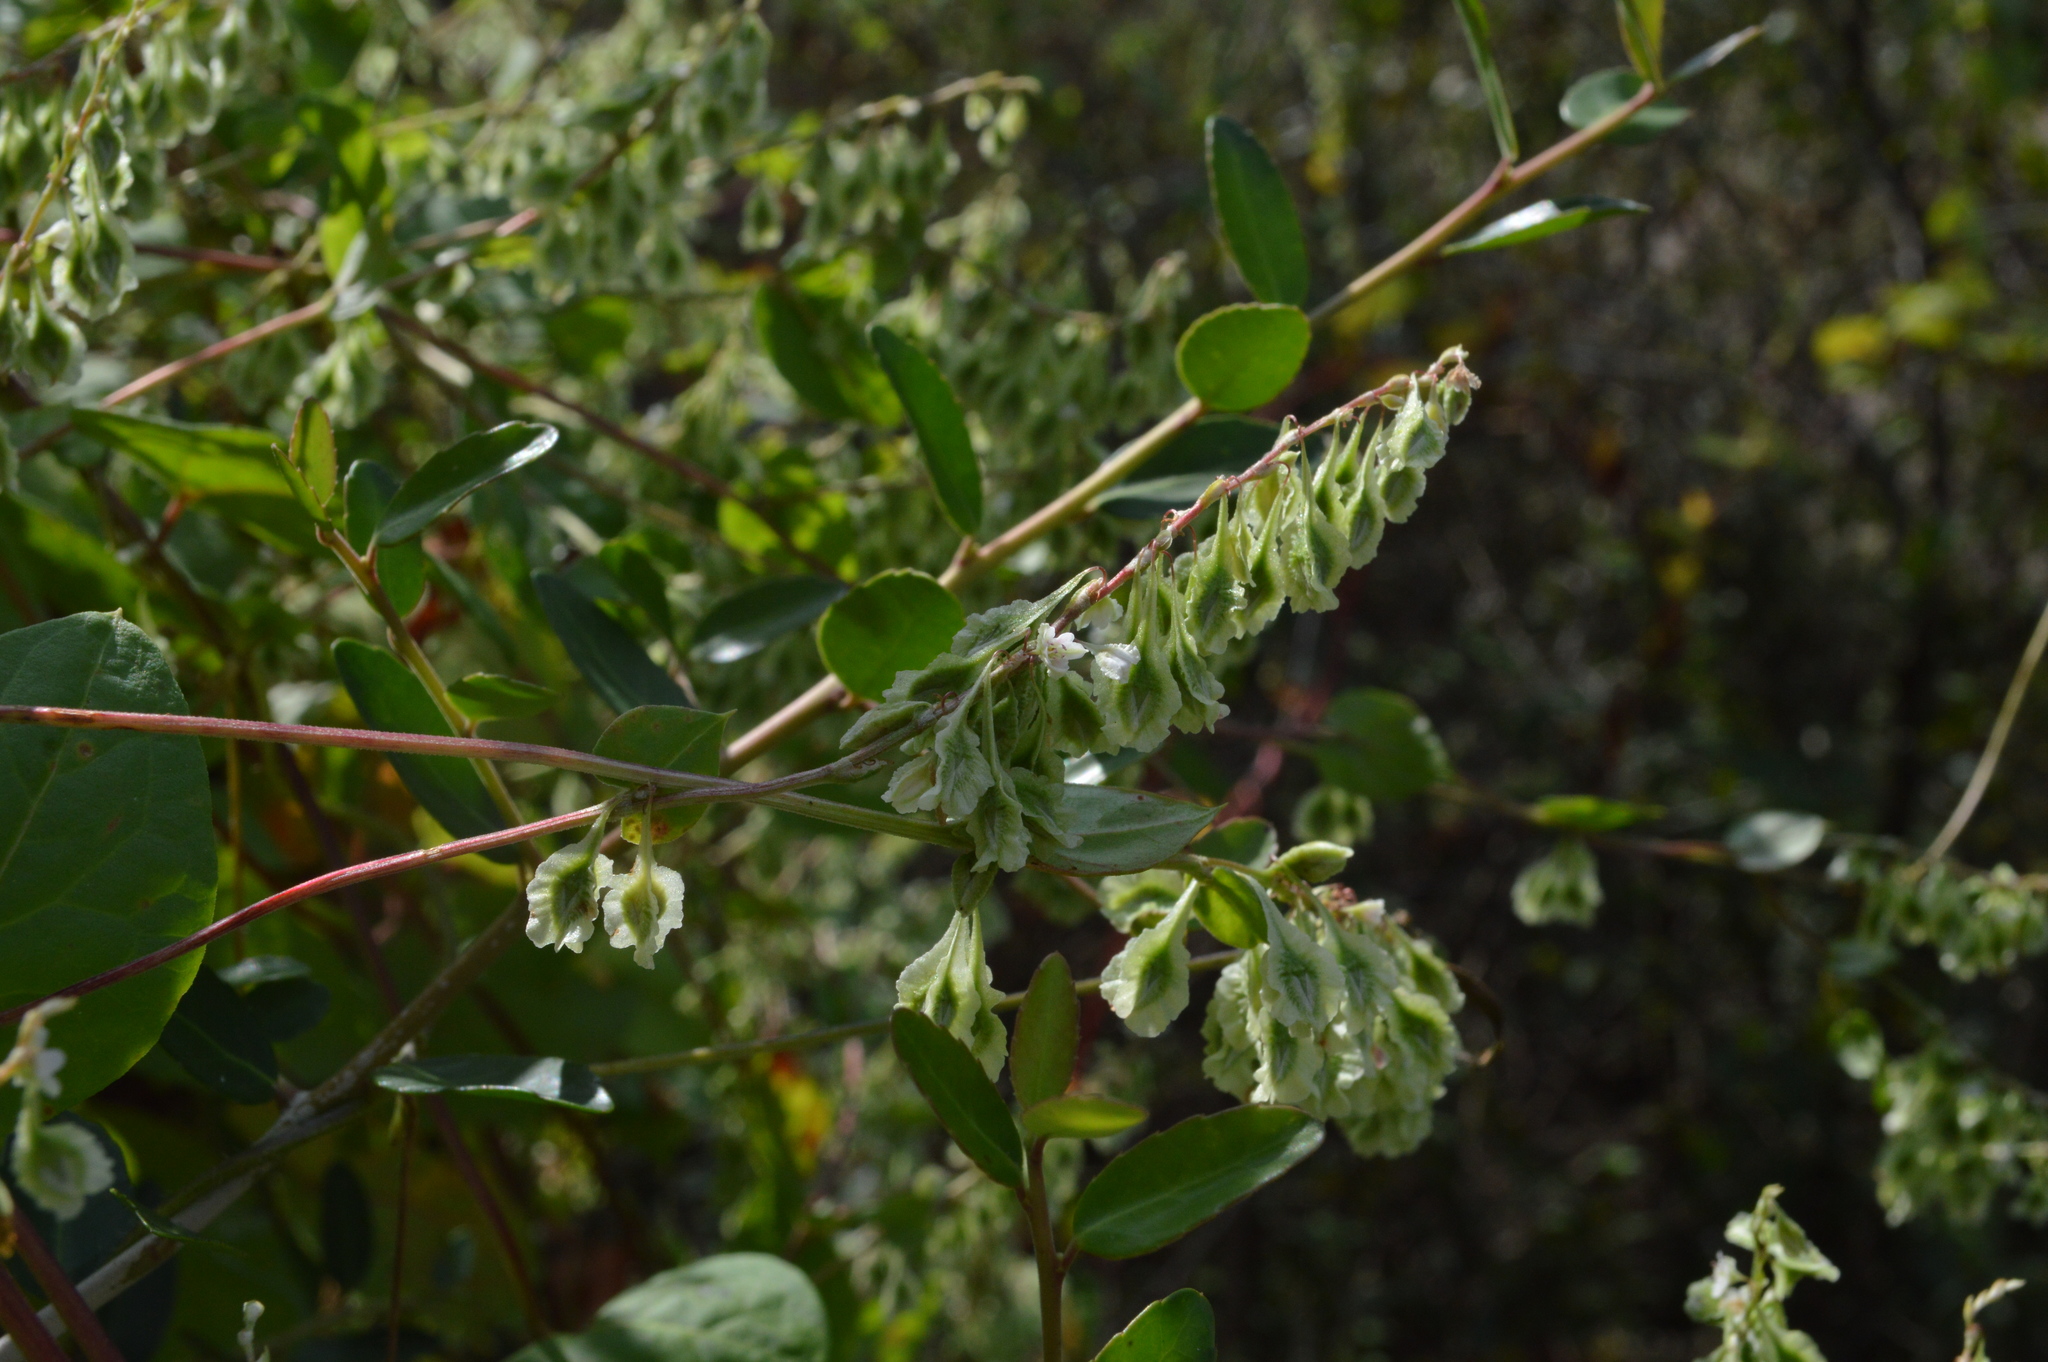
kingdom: Plantae
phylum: Tracheophyta
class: Magnoliopsida
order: Caryophyllales
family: Polygonaceae
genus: Fallopia
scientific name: Fallopia scandens
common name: Climbing false buckwheat
